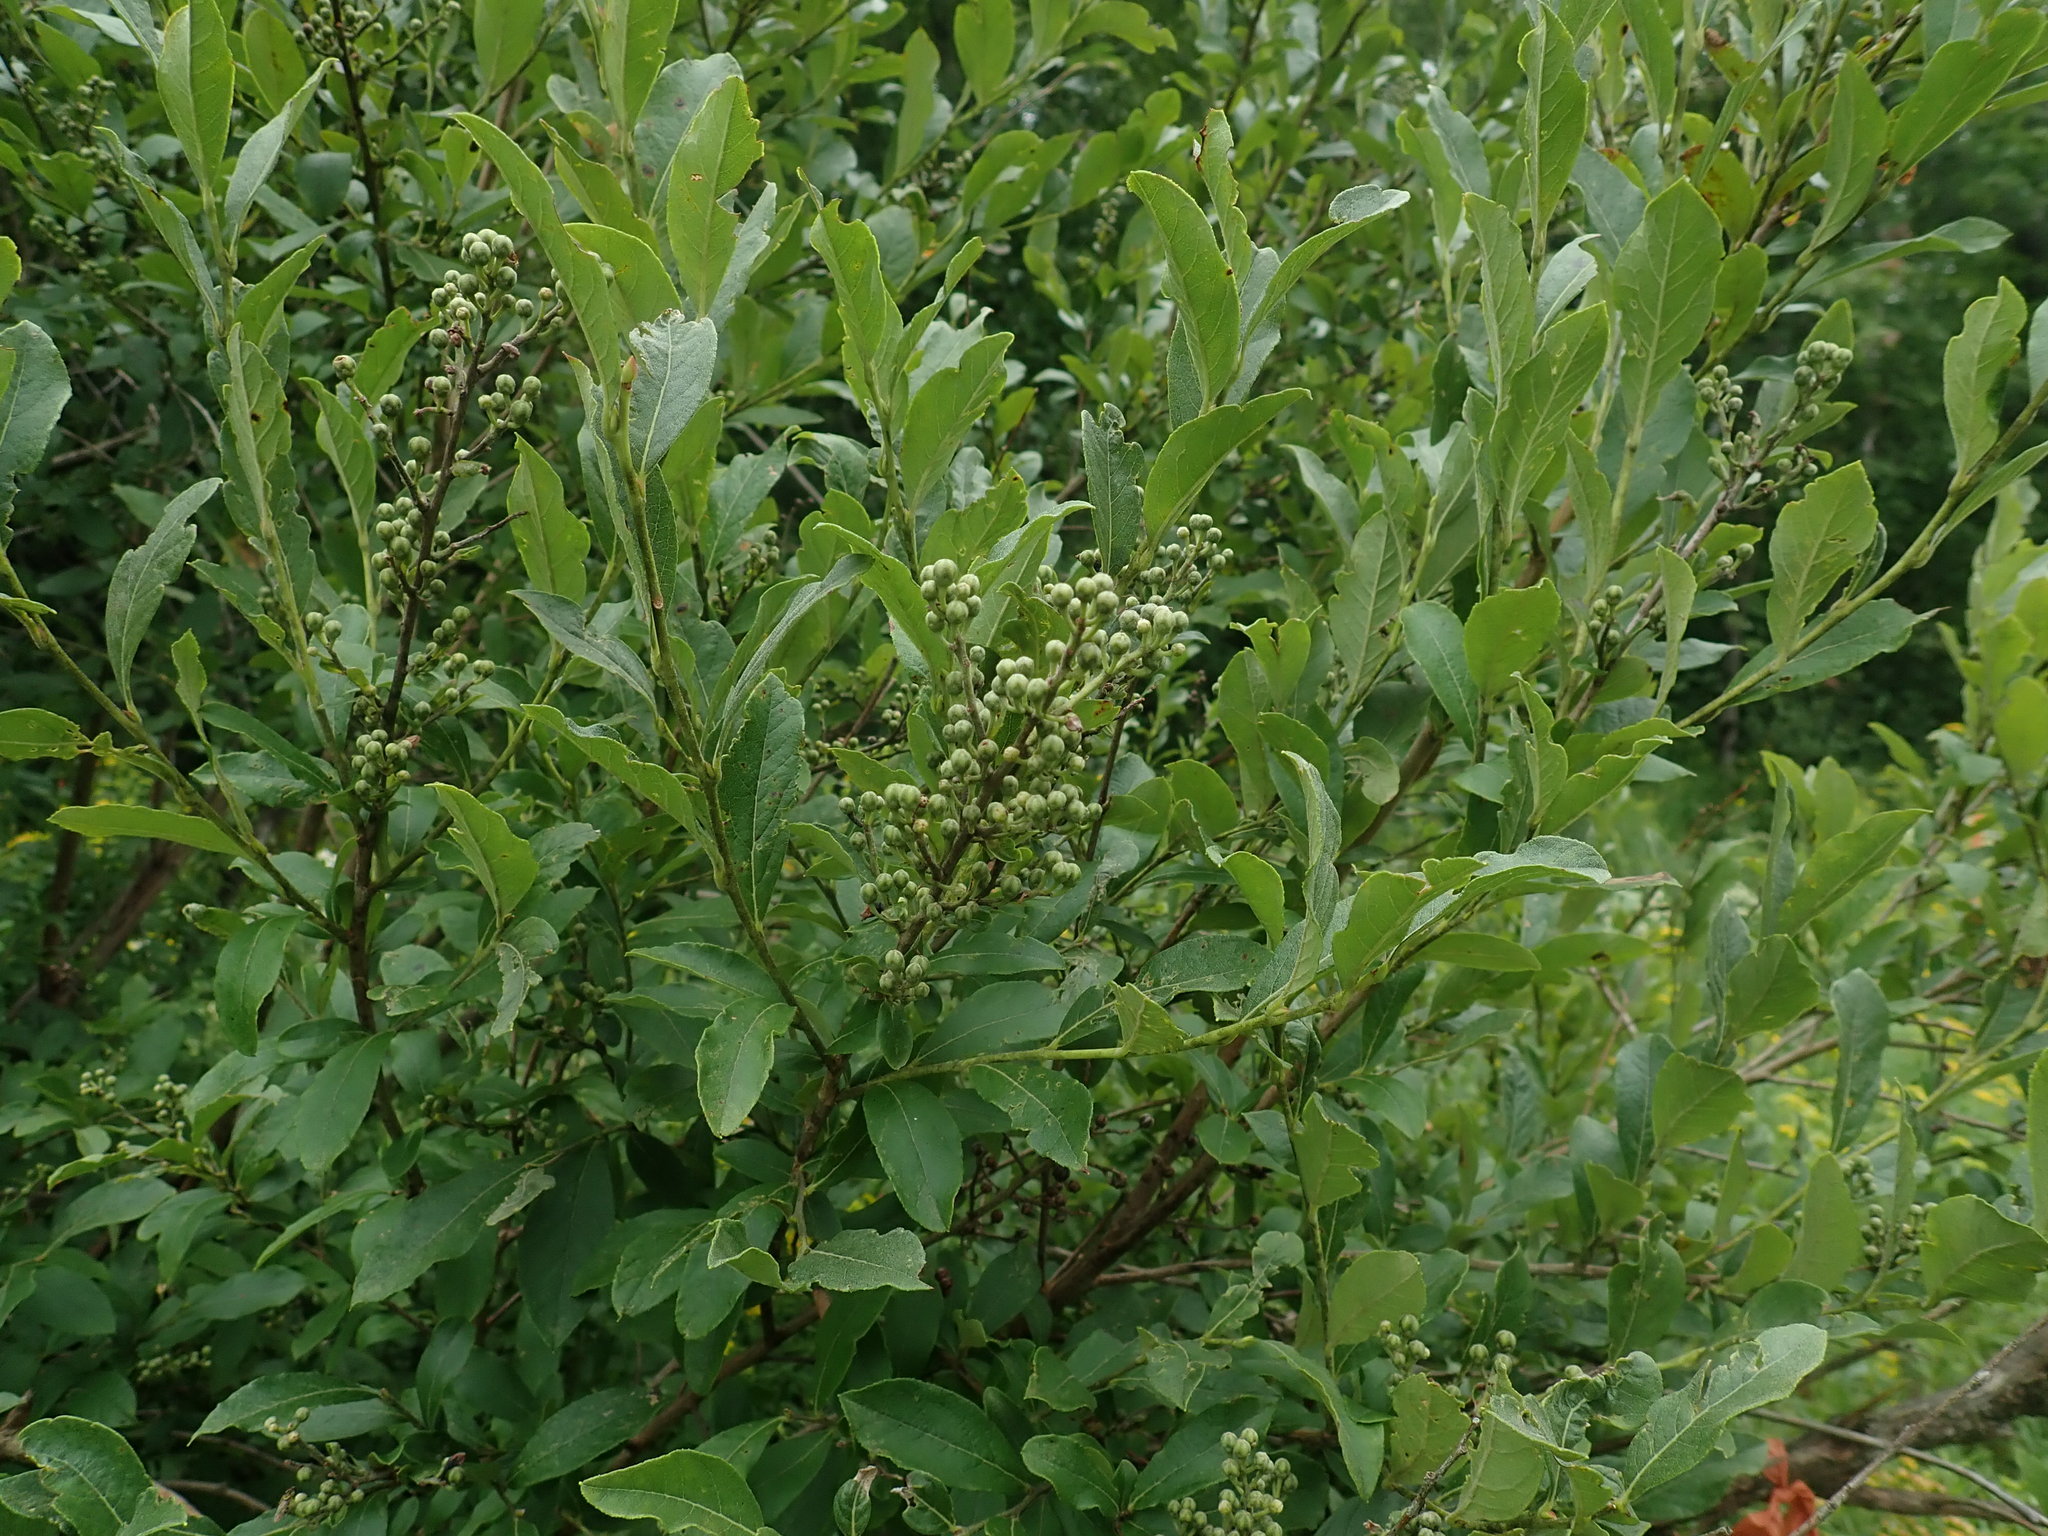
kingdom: Plantae
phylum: Tracheophyta
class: Magnoliopsida
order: Ericales
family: Ericaceae
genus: Lyonia
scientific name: Lyonia ligustrina
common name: Maleberry
